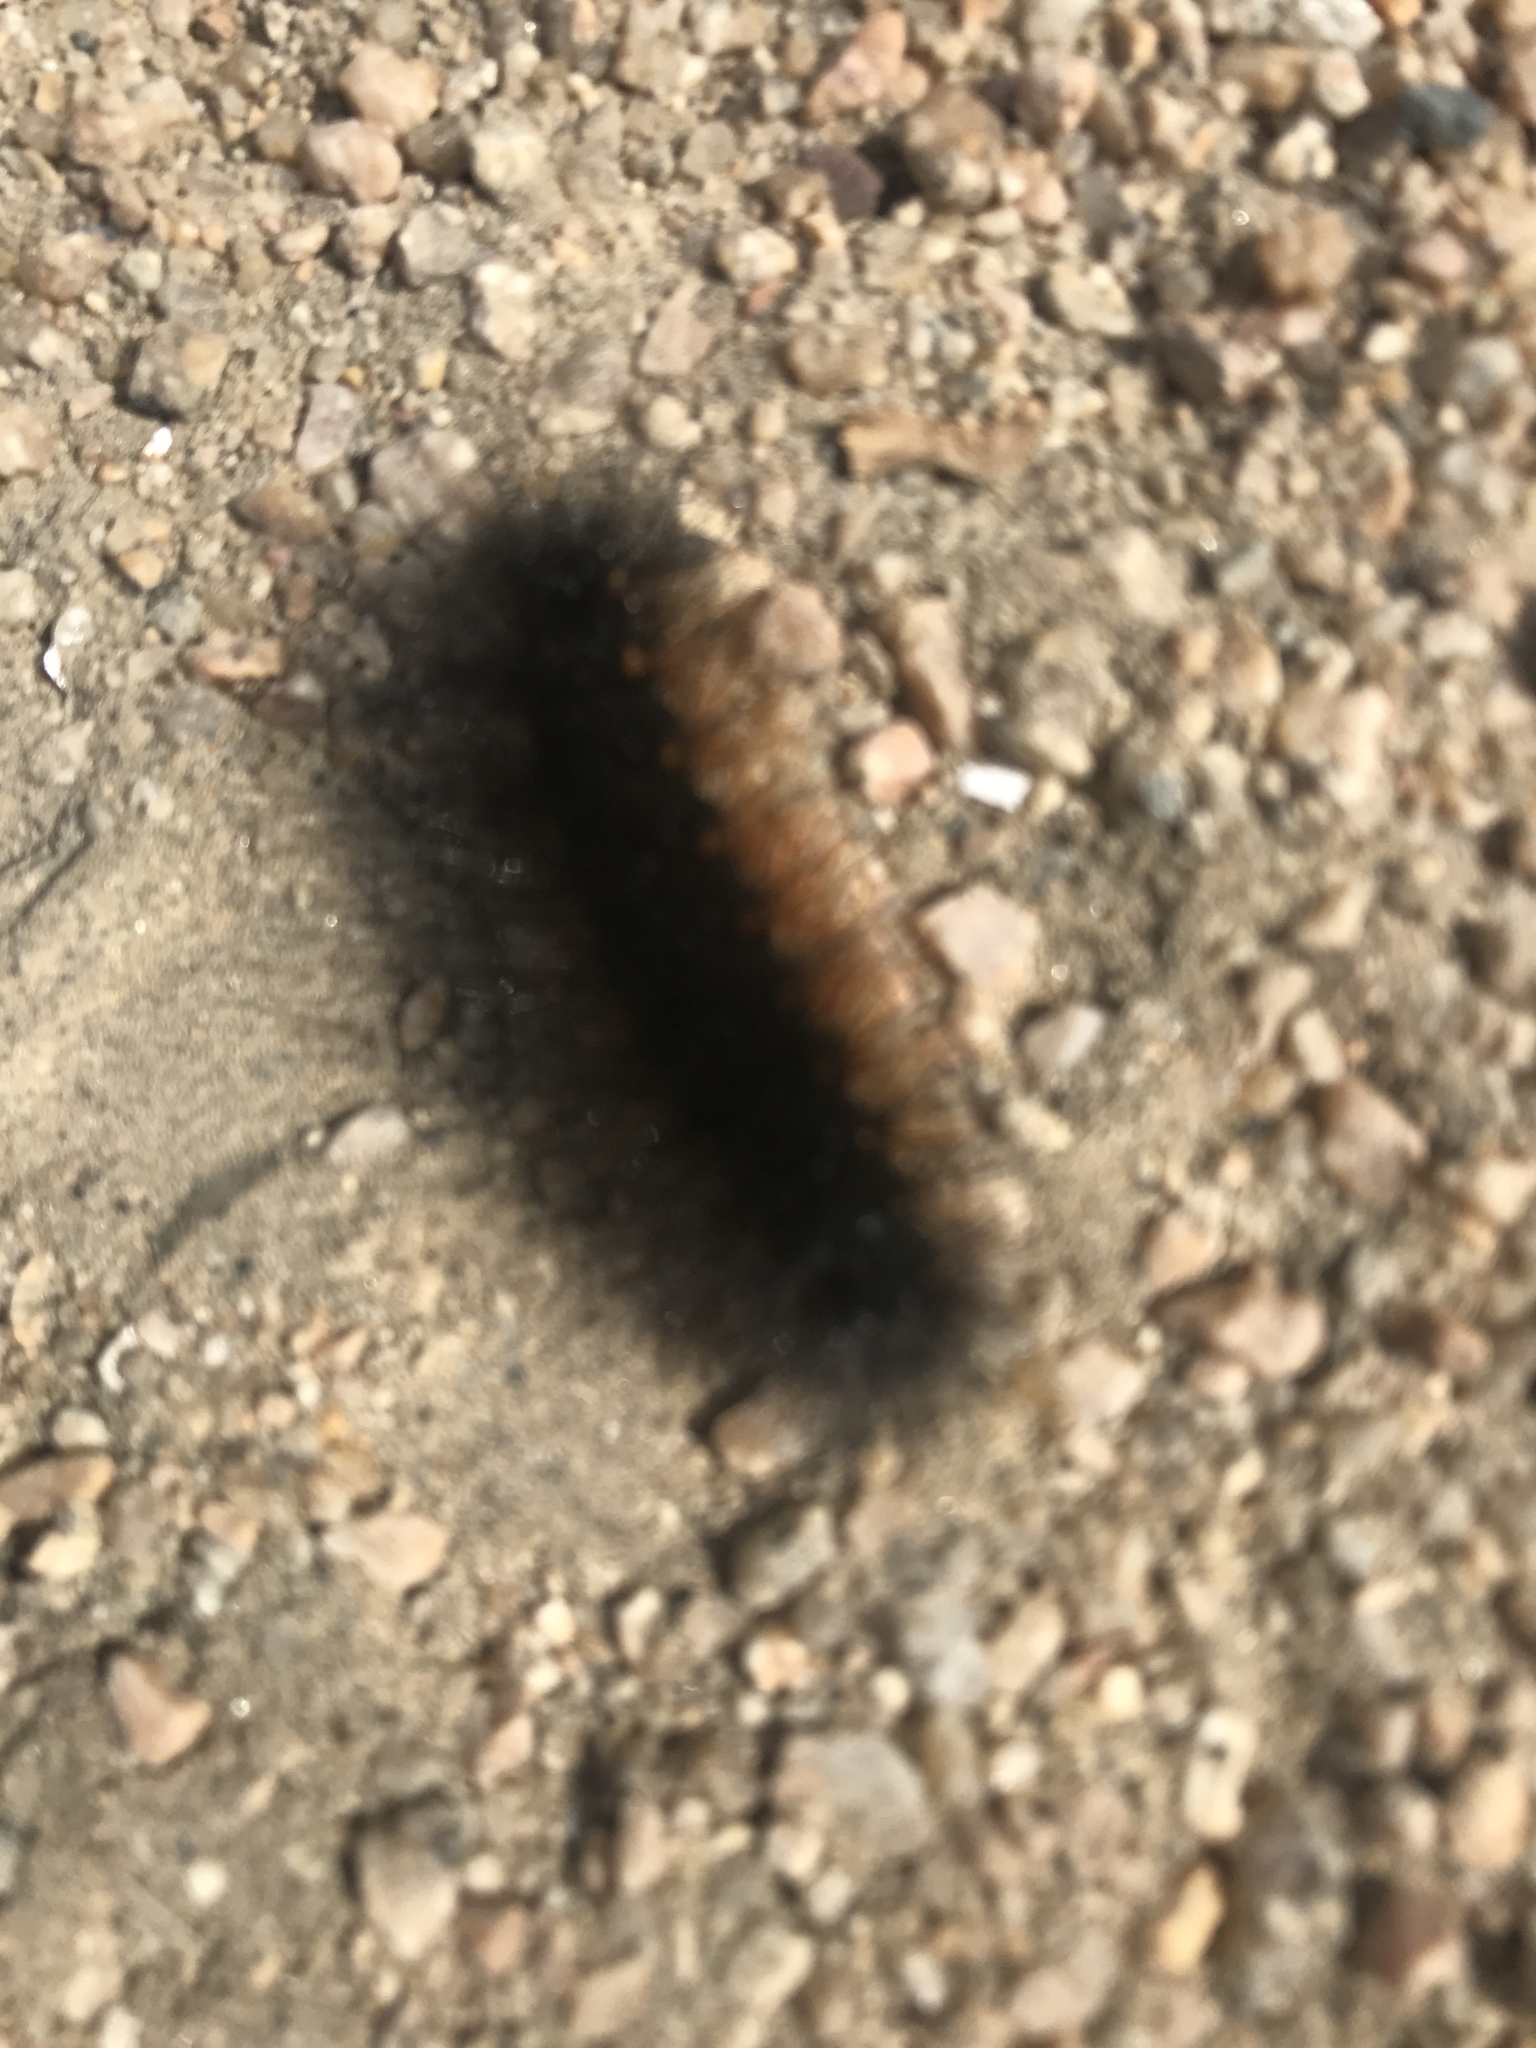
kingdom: Animalia
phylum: Arthropoda
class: Insecta
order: Lepidoptera
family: Erebidae
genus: Estigmene
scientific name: Estigmene acrea
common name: Salt marsh moth
